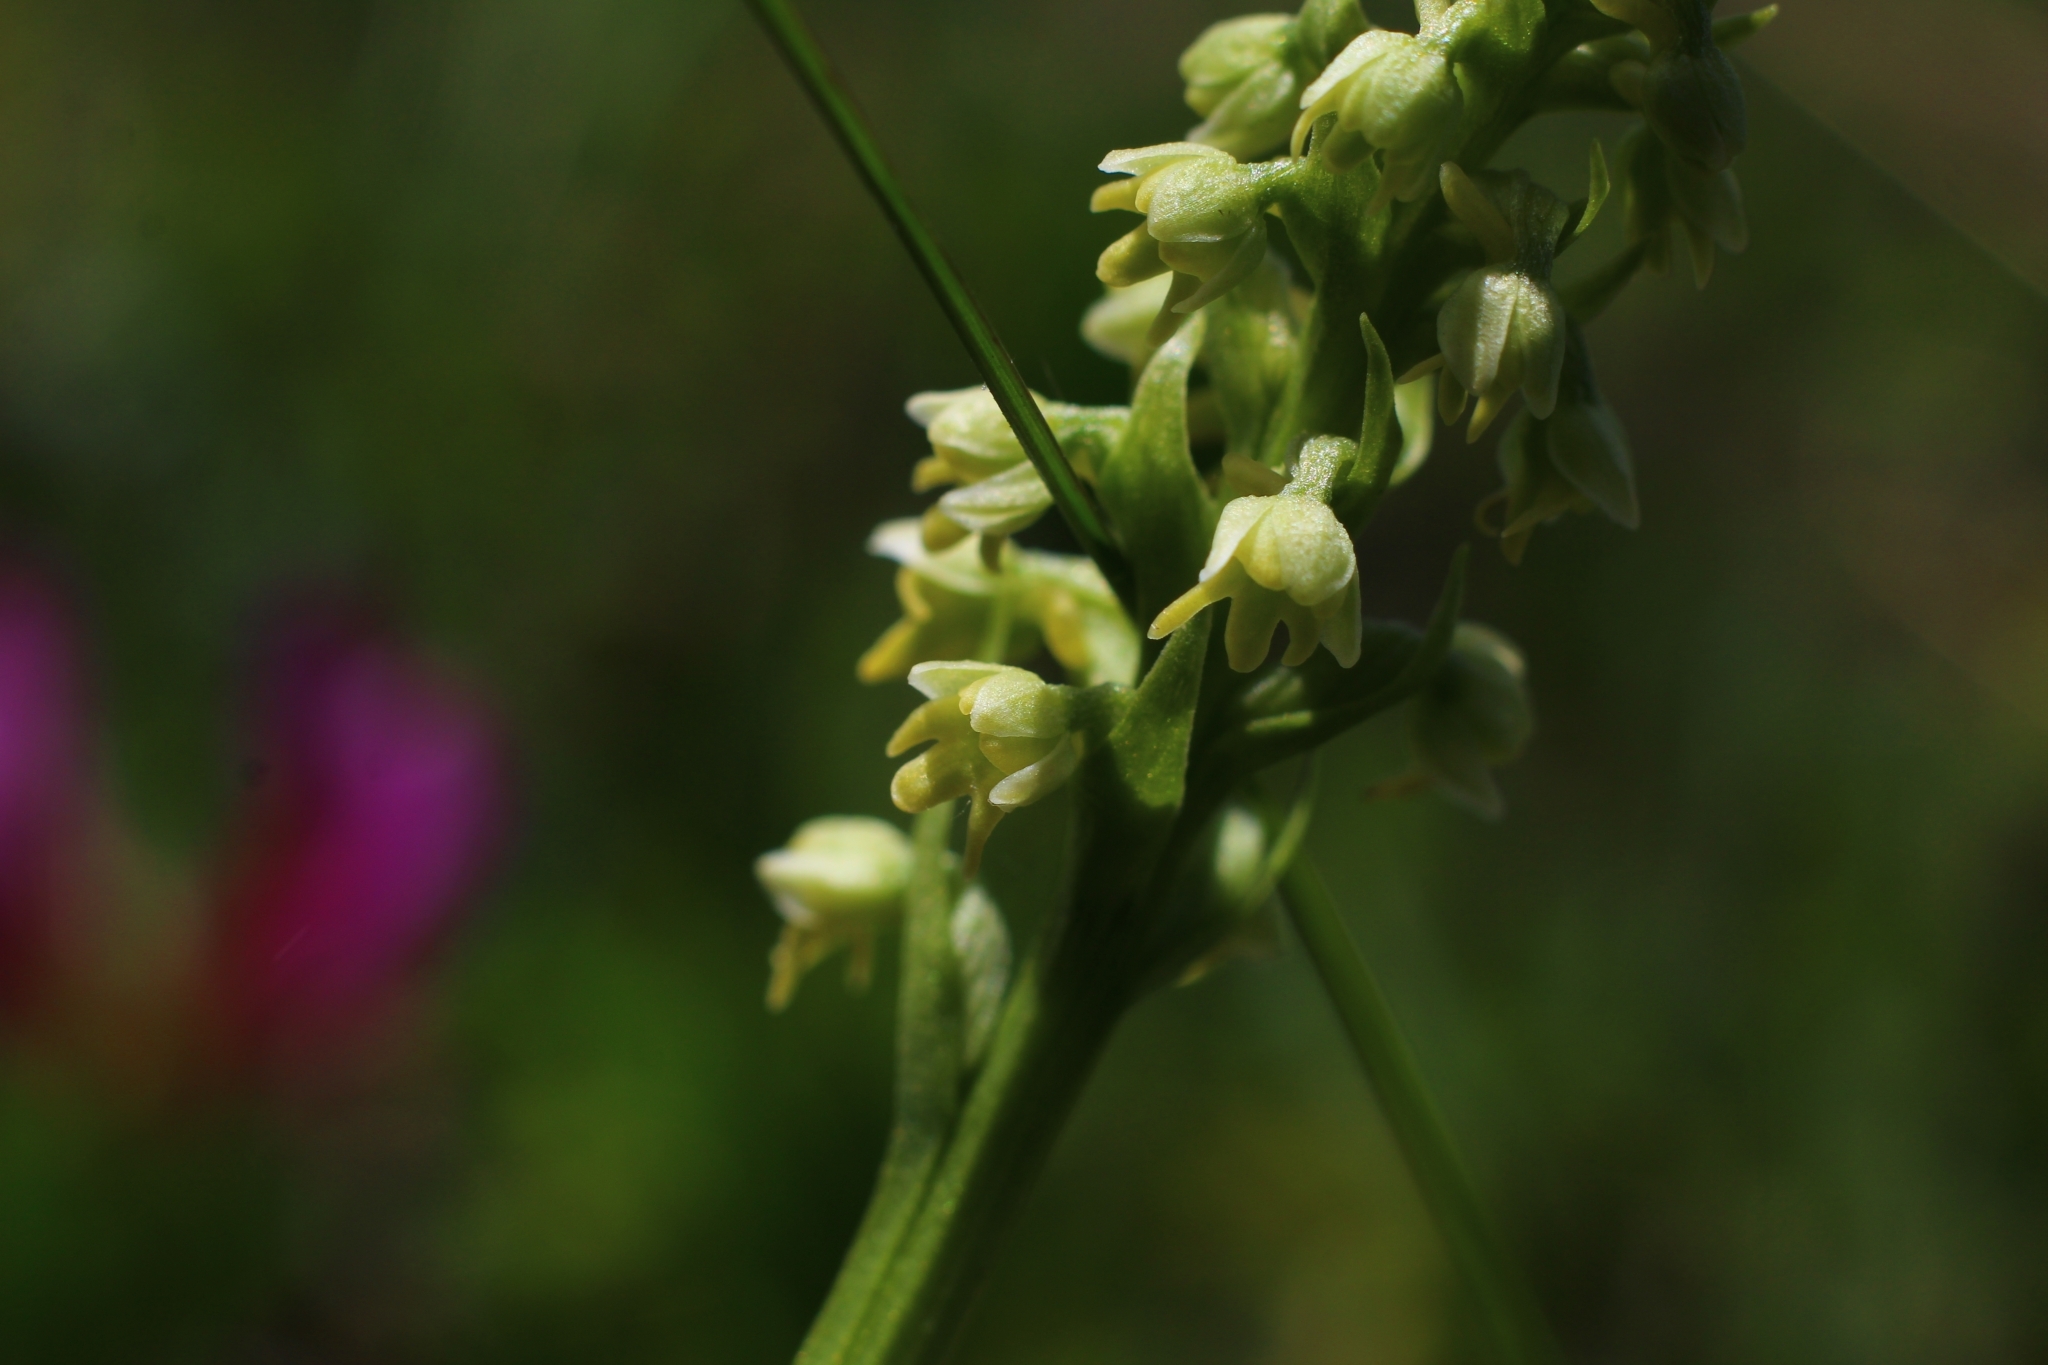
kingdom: Plantae
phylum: Tracheophyta
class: Liliopsida
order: Asparagales
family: Orchidaceae
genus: Pseudorchis
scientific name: Pseudorchis albida
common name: Small-white orchid
